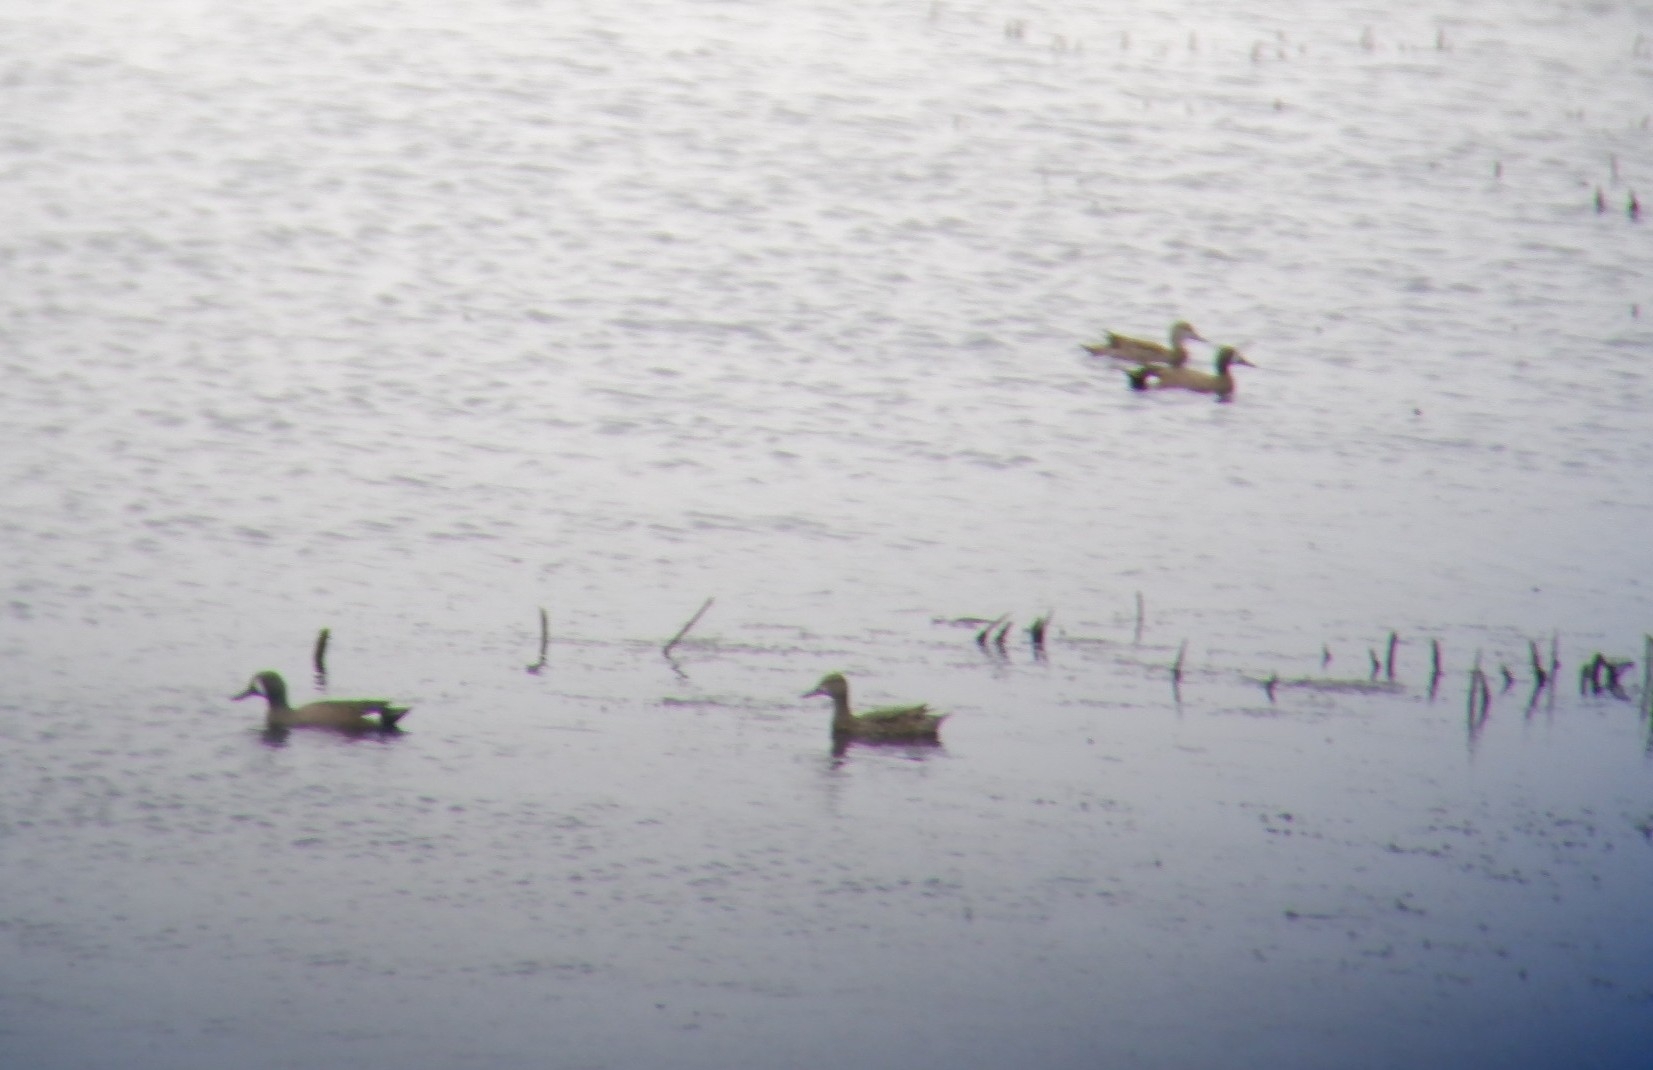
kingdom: Animalia
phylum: Chordata
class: Aves
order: Anseriformes
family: Anatidae
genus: Spatula
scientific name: Spatula discors
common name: Blue-winged teal
